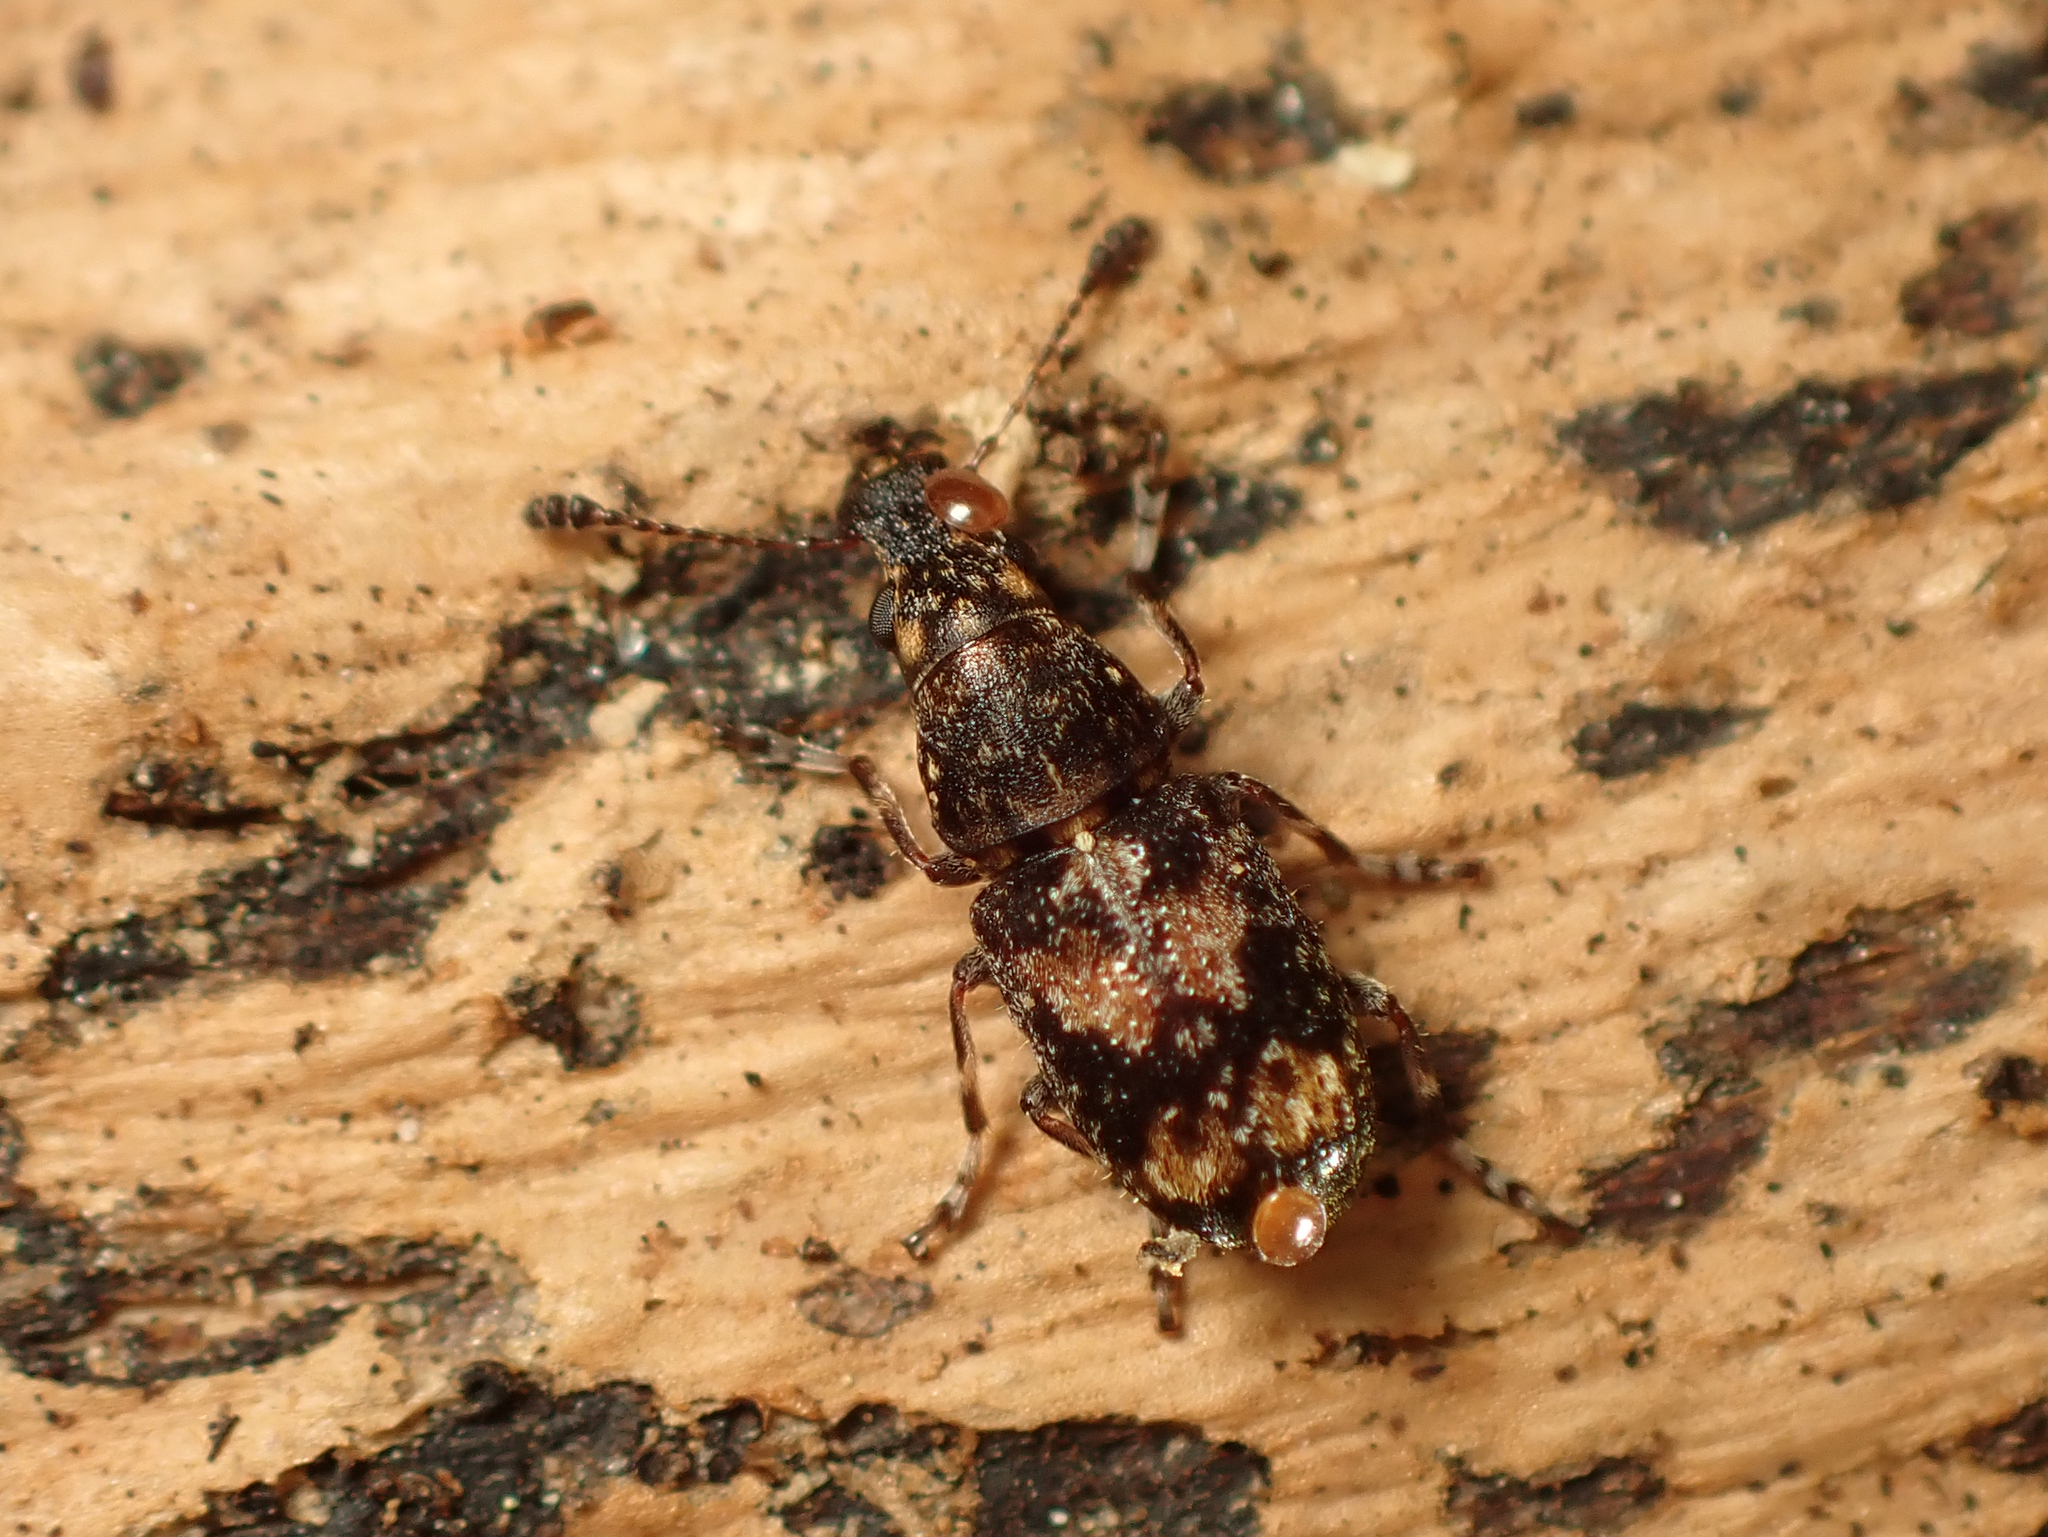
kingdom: Animalia
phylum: Arthropoda
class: Insecta
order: Coleoptera
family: Anthribidae
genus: Sharpius
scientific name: Sharpius
